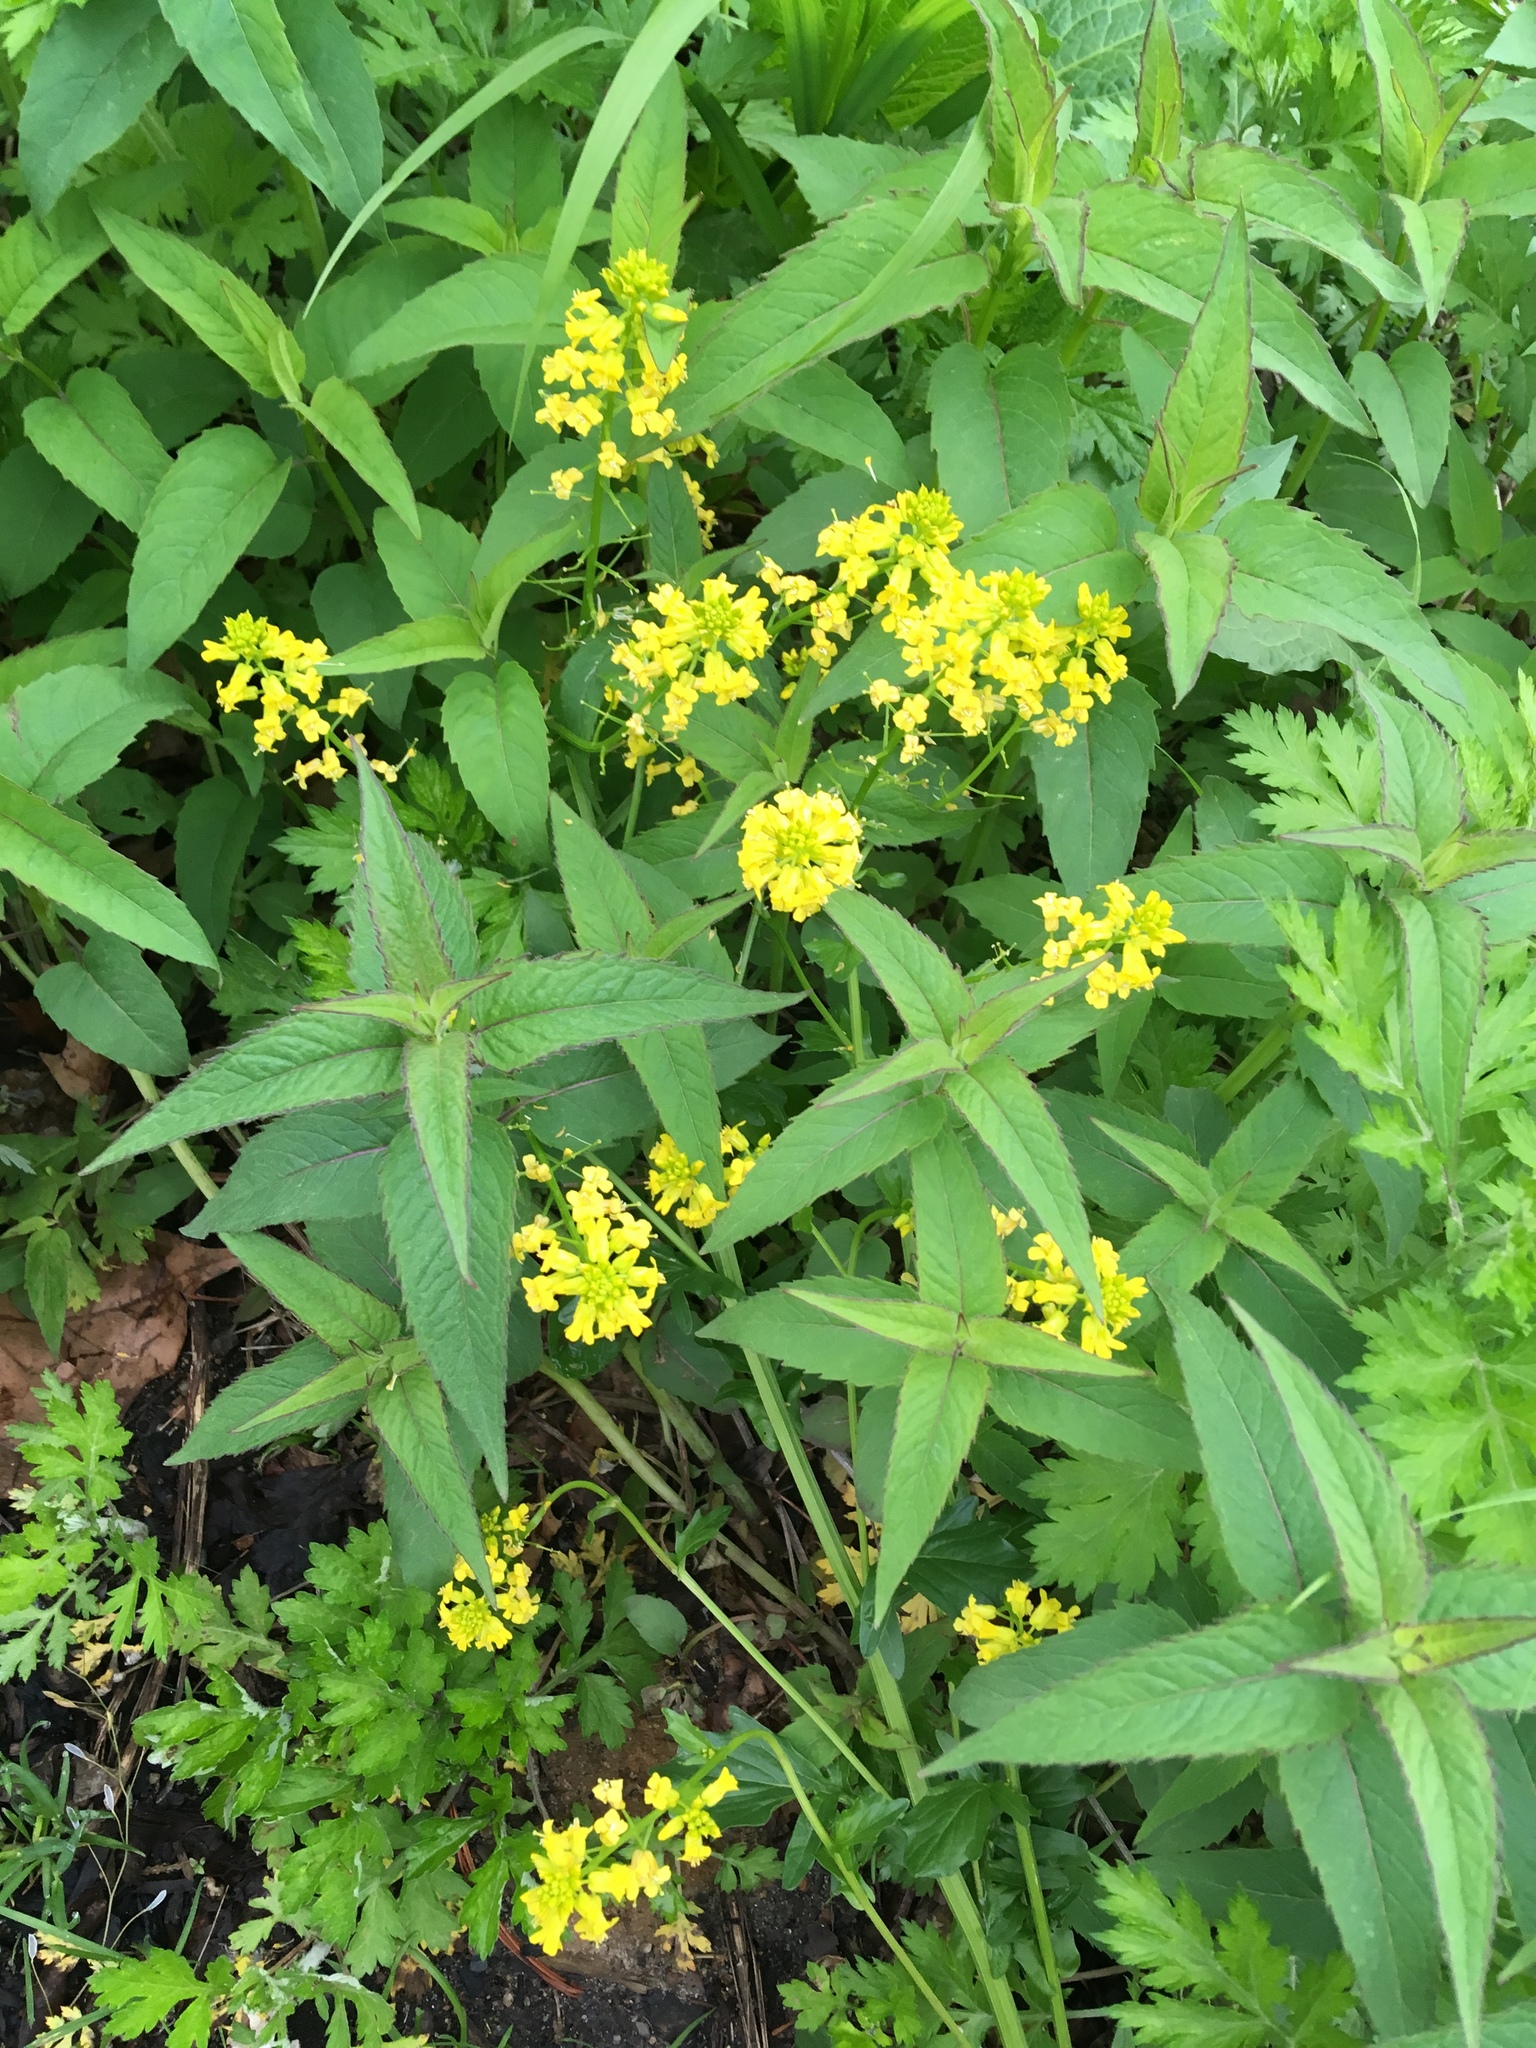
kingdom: Plantae
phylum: Tracheophyta
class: Magnoliopsida
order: Brassicales
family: Brassicaceae
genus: Barbarea
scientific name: Barbarea vulgaris
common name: Cressy-greens
